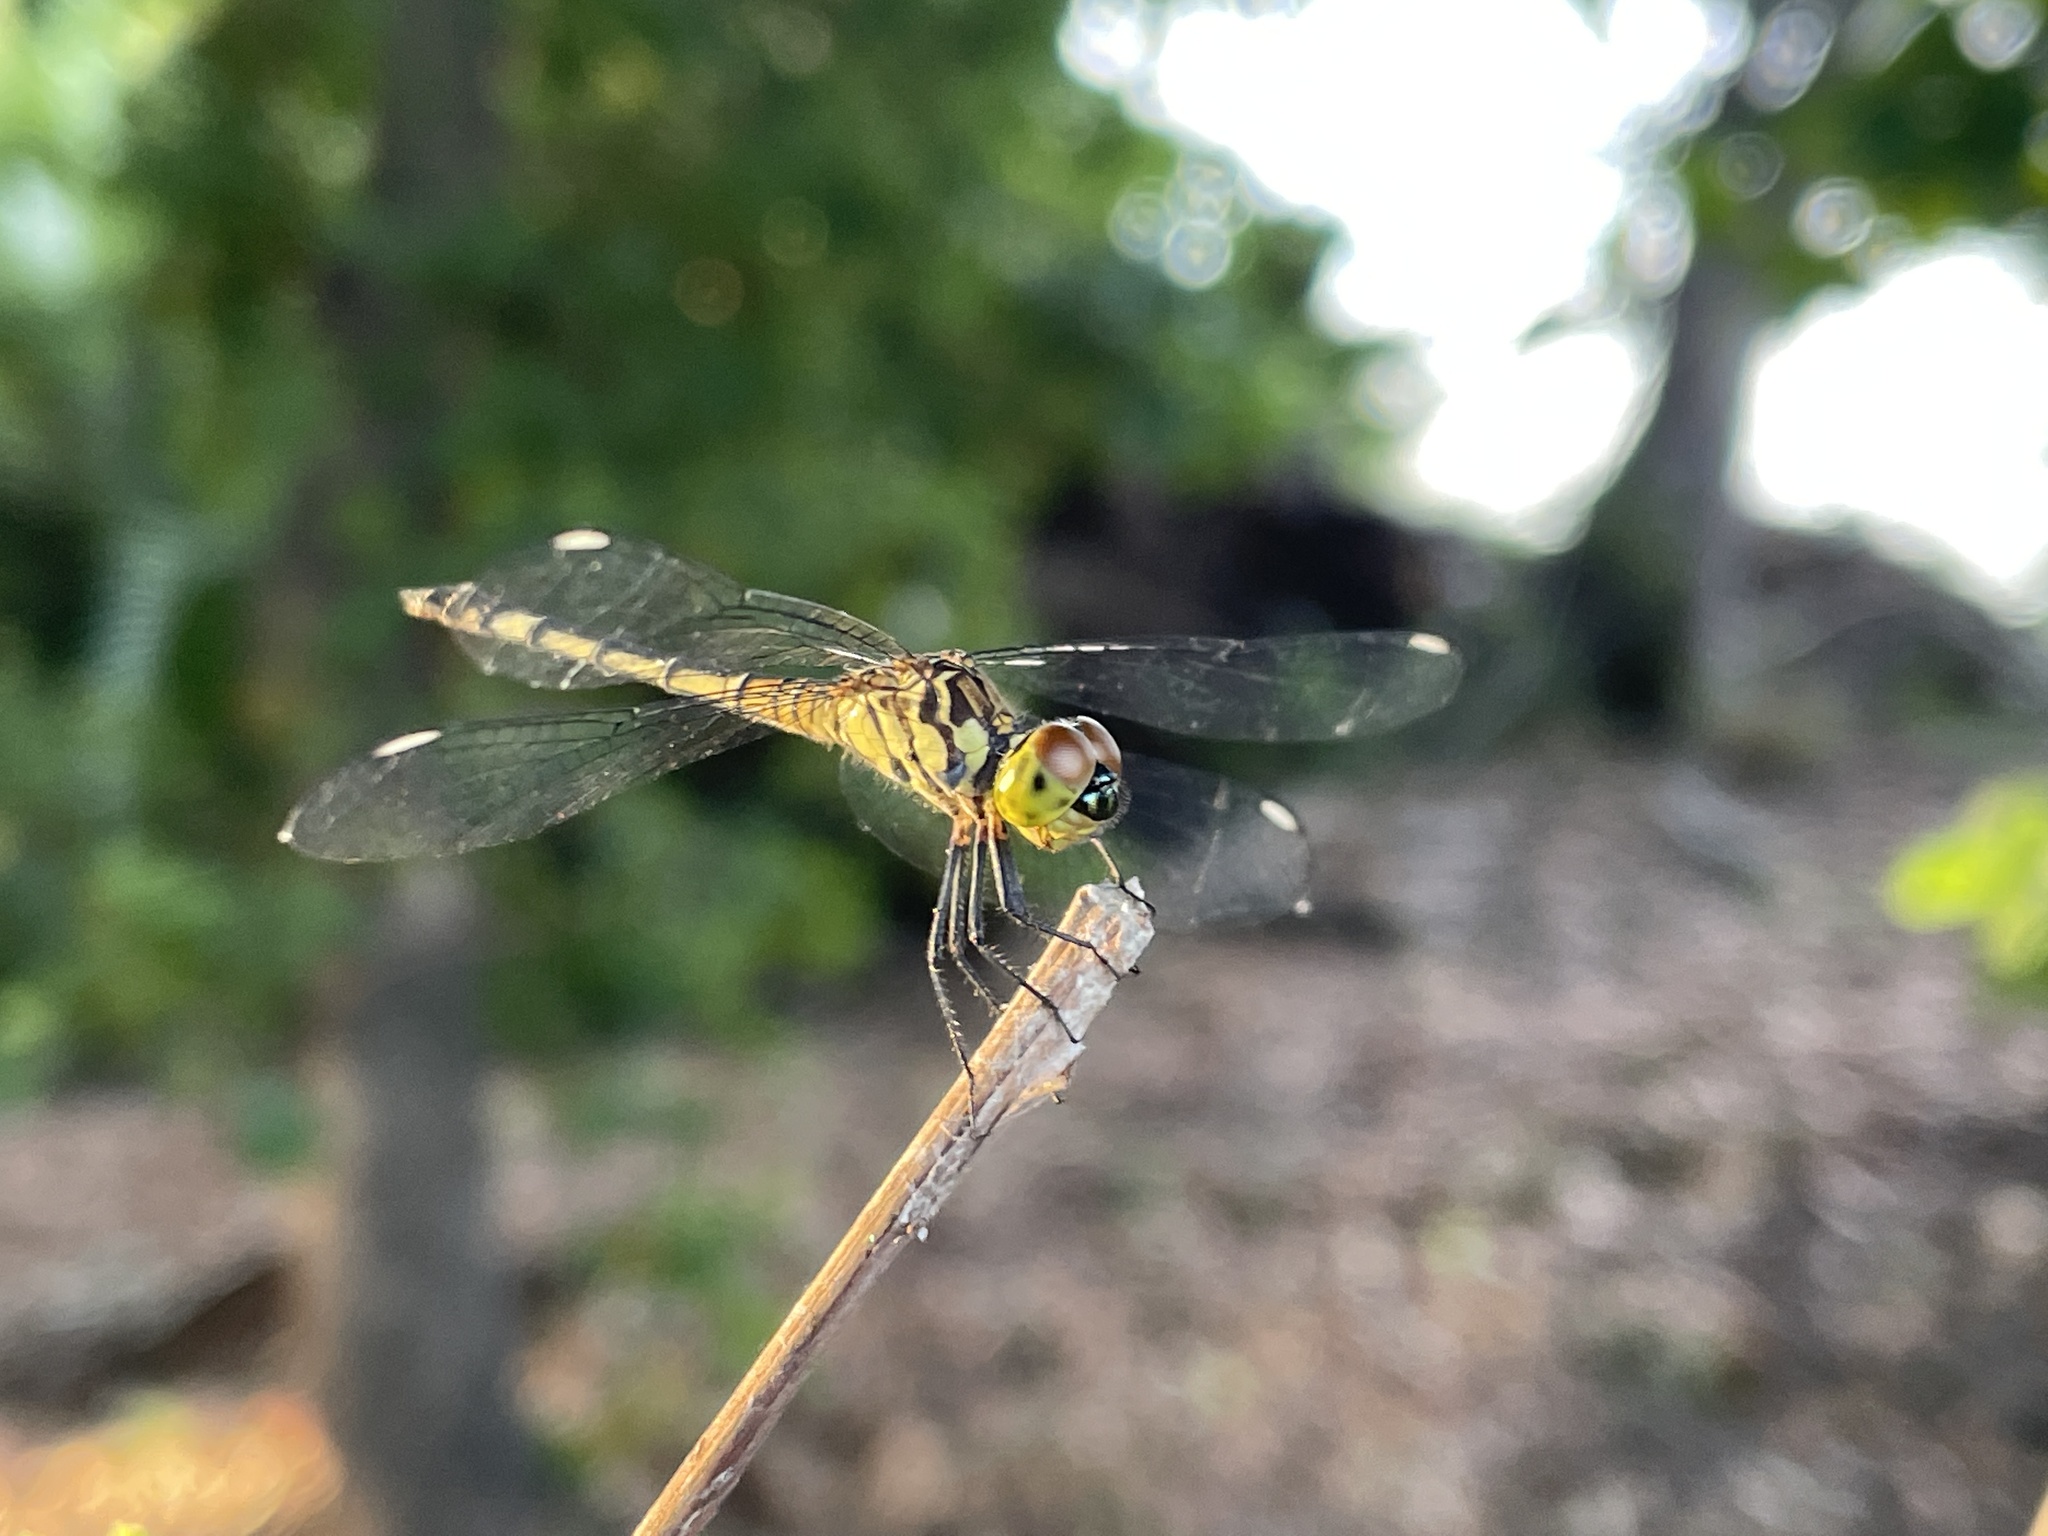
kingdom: Animalia
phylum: Arthropoda
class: Insecta
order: Odonata
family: Libellulidae
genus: Chalcostephia
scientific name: Chalcostephia flavifrons
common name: Inspector
